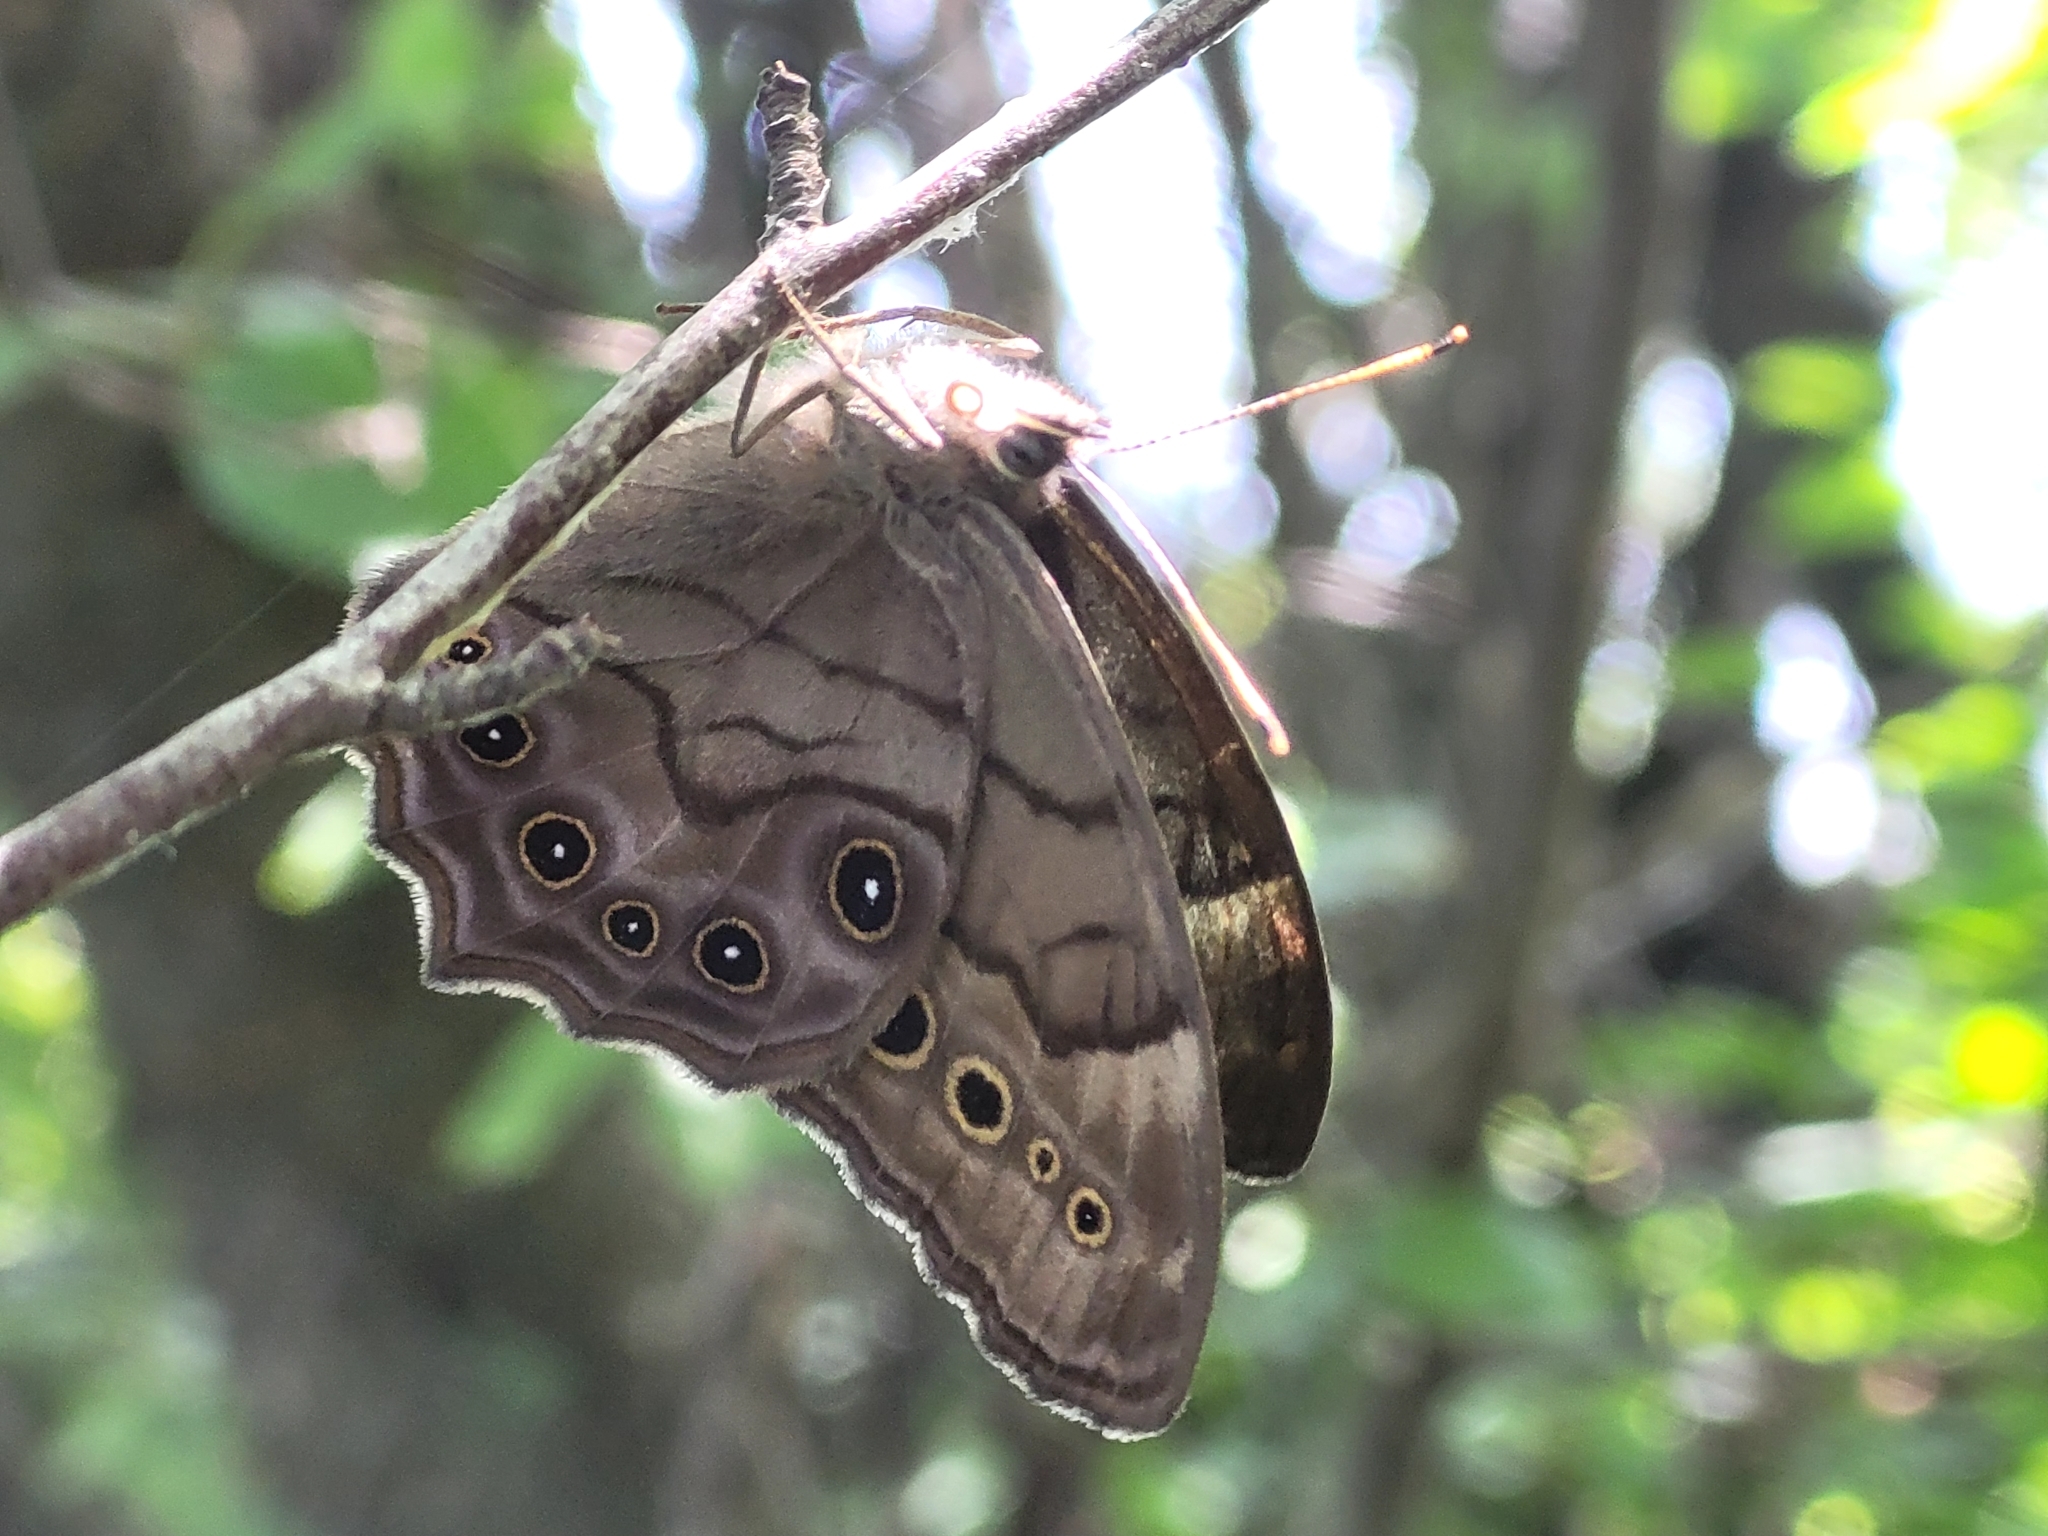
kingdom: Animalia
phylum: Arthropoda
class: Insecta
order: Lepidoptera
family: Nymphalidae
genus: Lethe
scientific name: Lethe anthedon
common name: Northern pearly-eye
